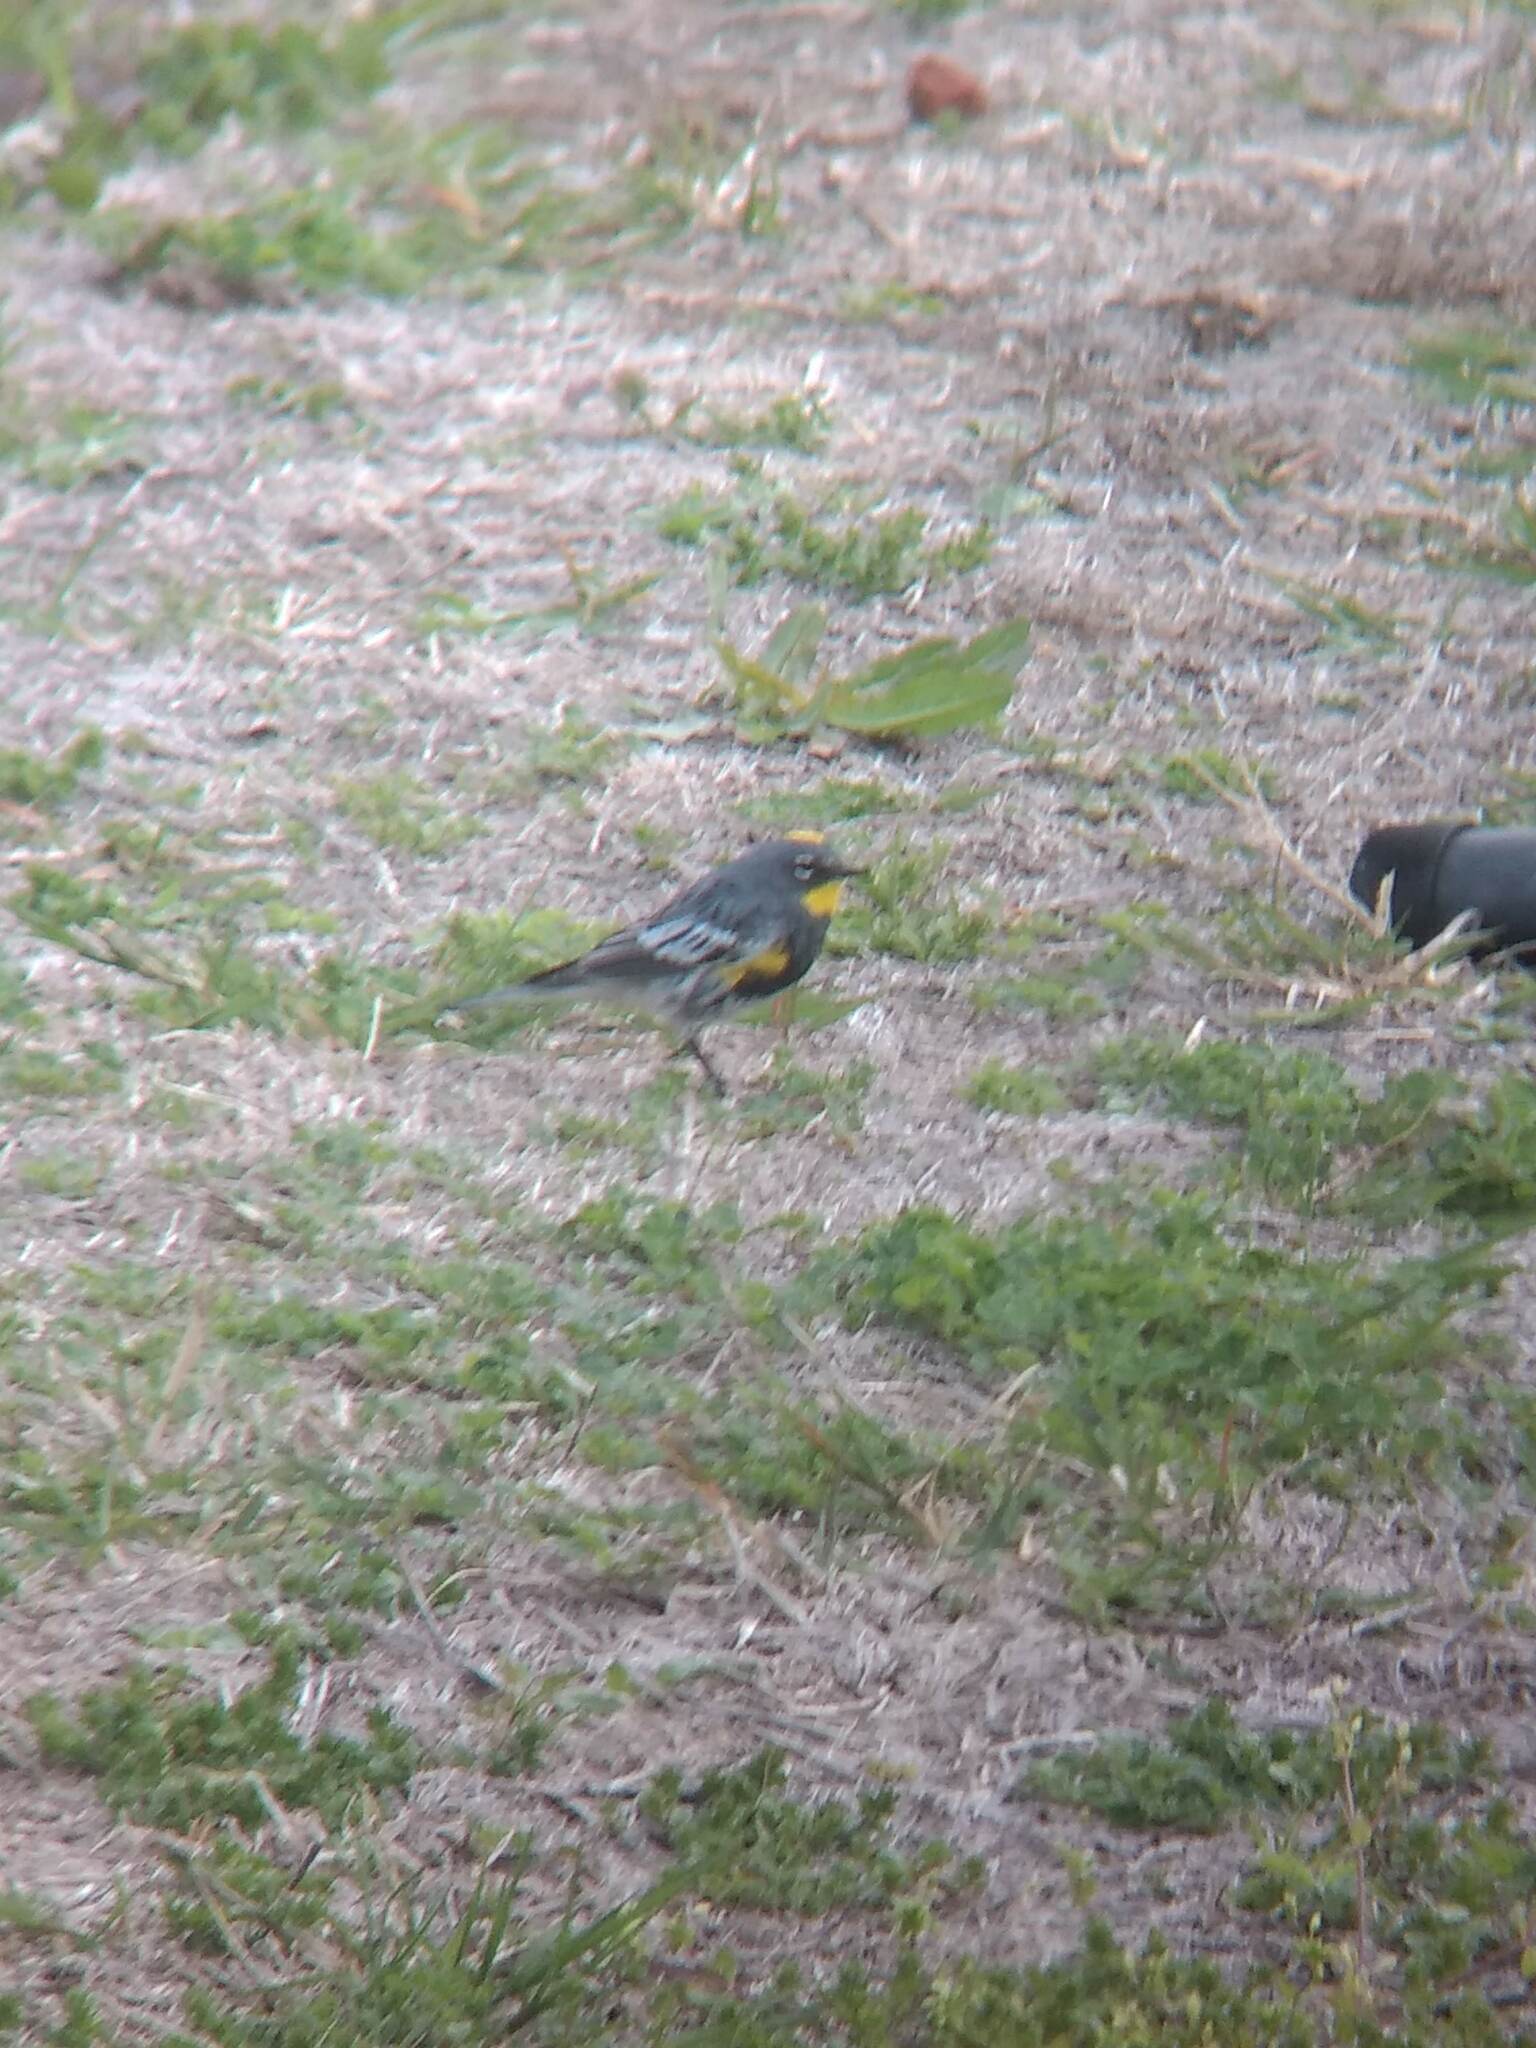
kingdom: Animalia
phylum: Chordata
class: Aves
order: Passeriformes
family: Parulidae
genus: Setophaga
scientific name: Setophaga coronata
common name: Myrtle warbler
